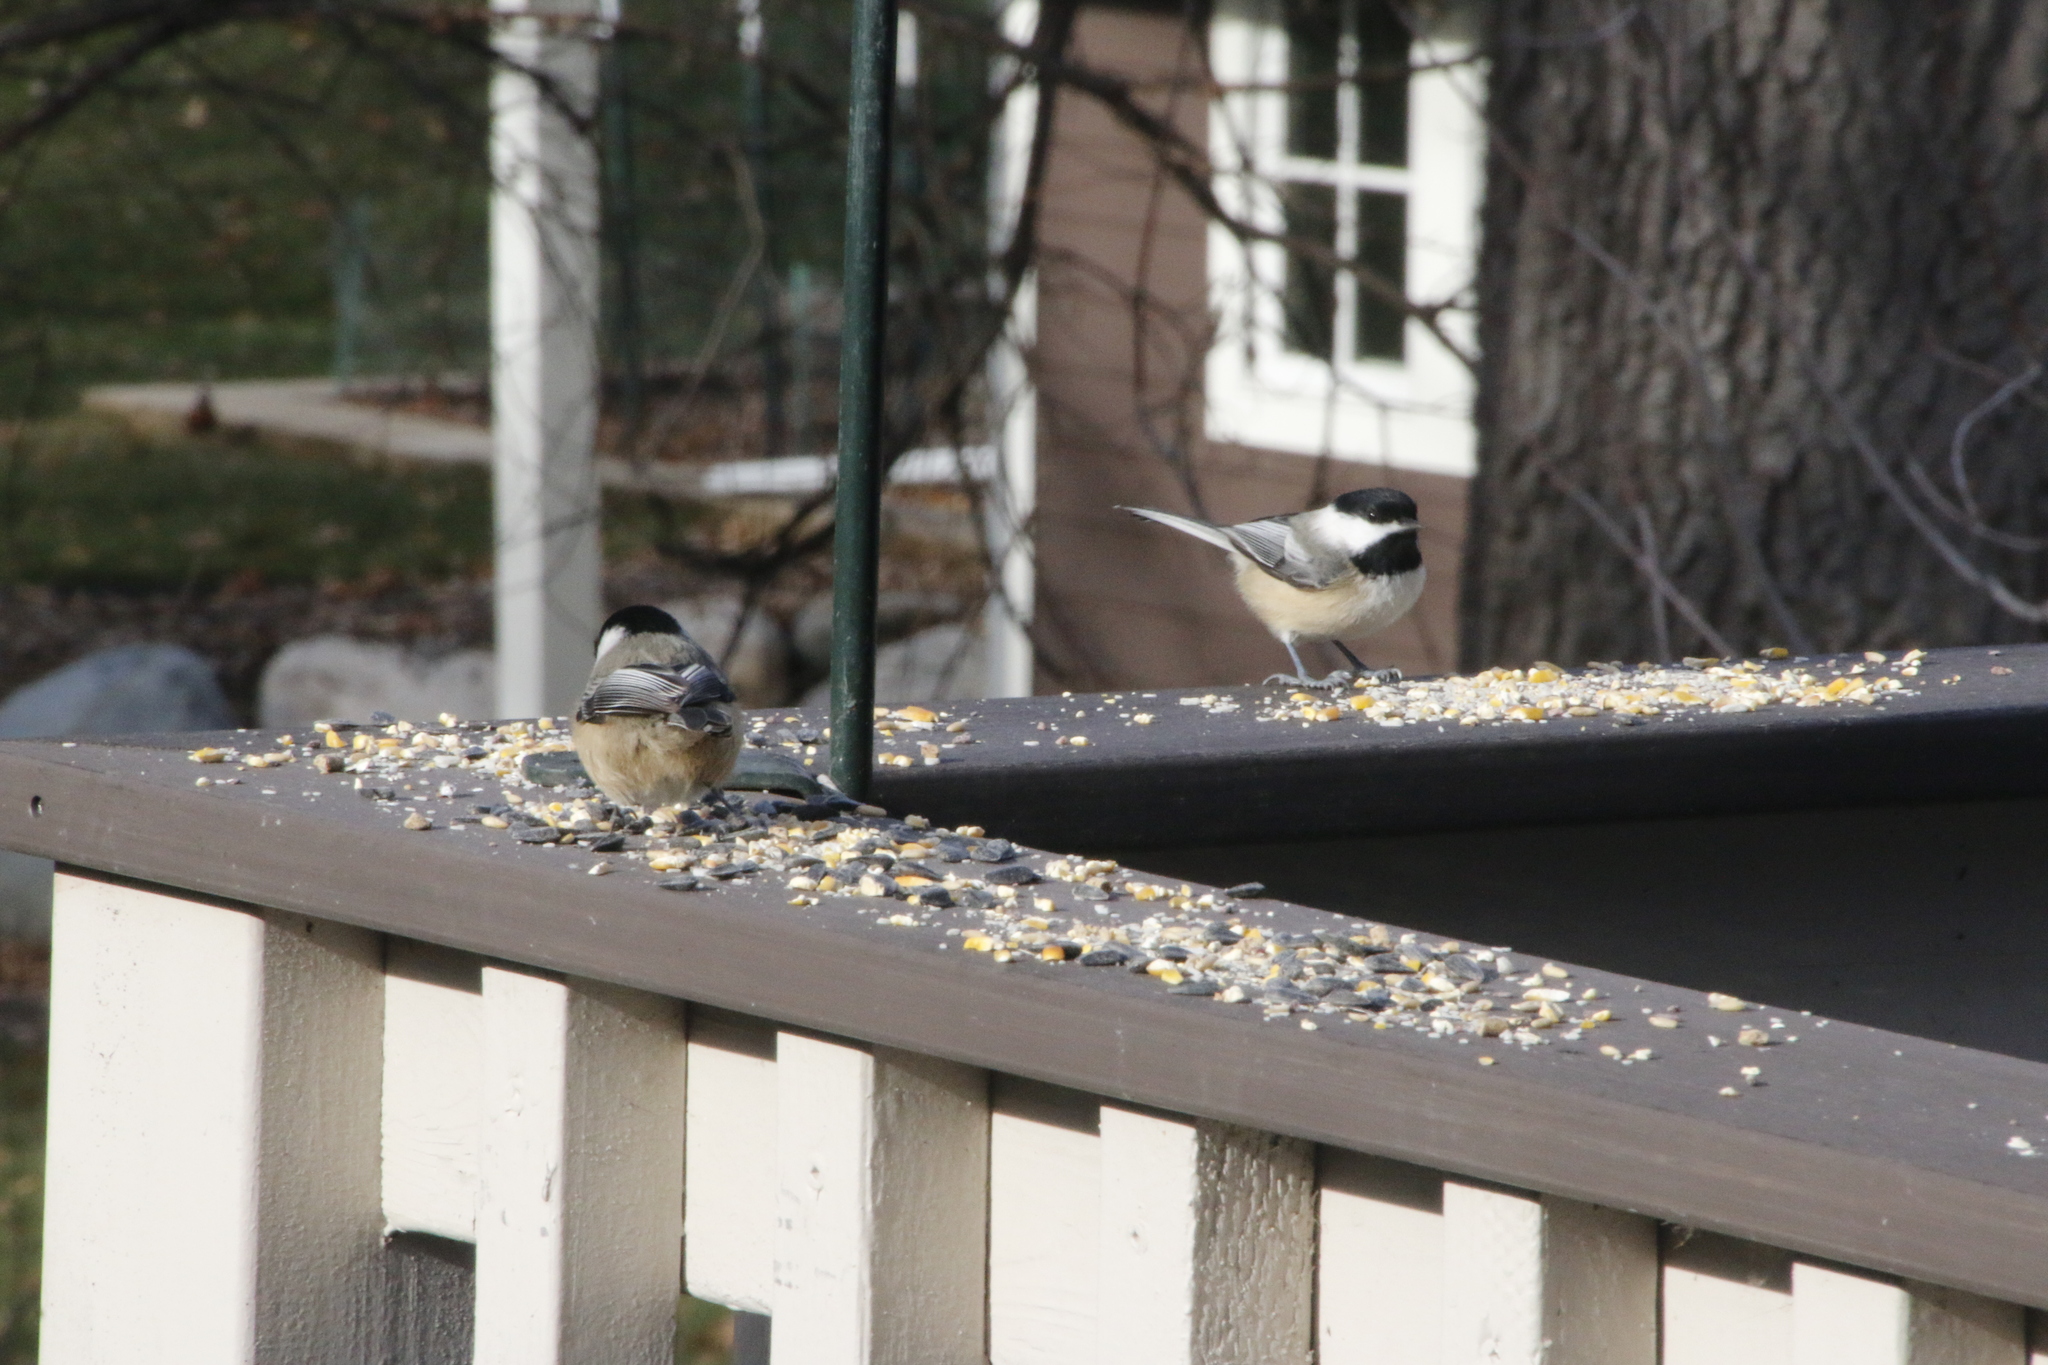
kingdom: Animalia
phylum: Chordata
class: Aves
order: Passeriformes
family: Paridae
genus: Poecile
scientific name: Poecile atricapillus
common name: Black-capped chickadee
